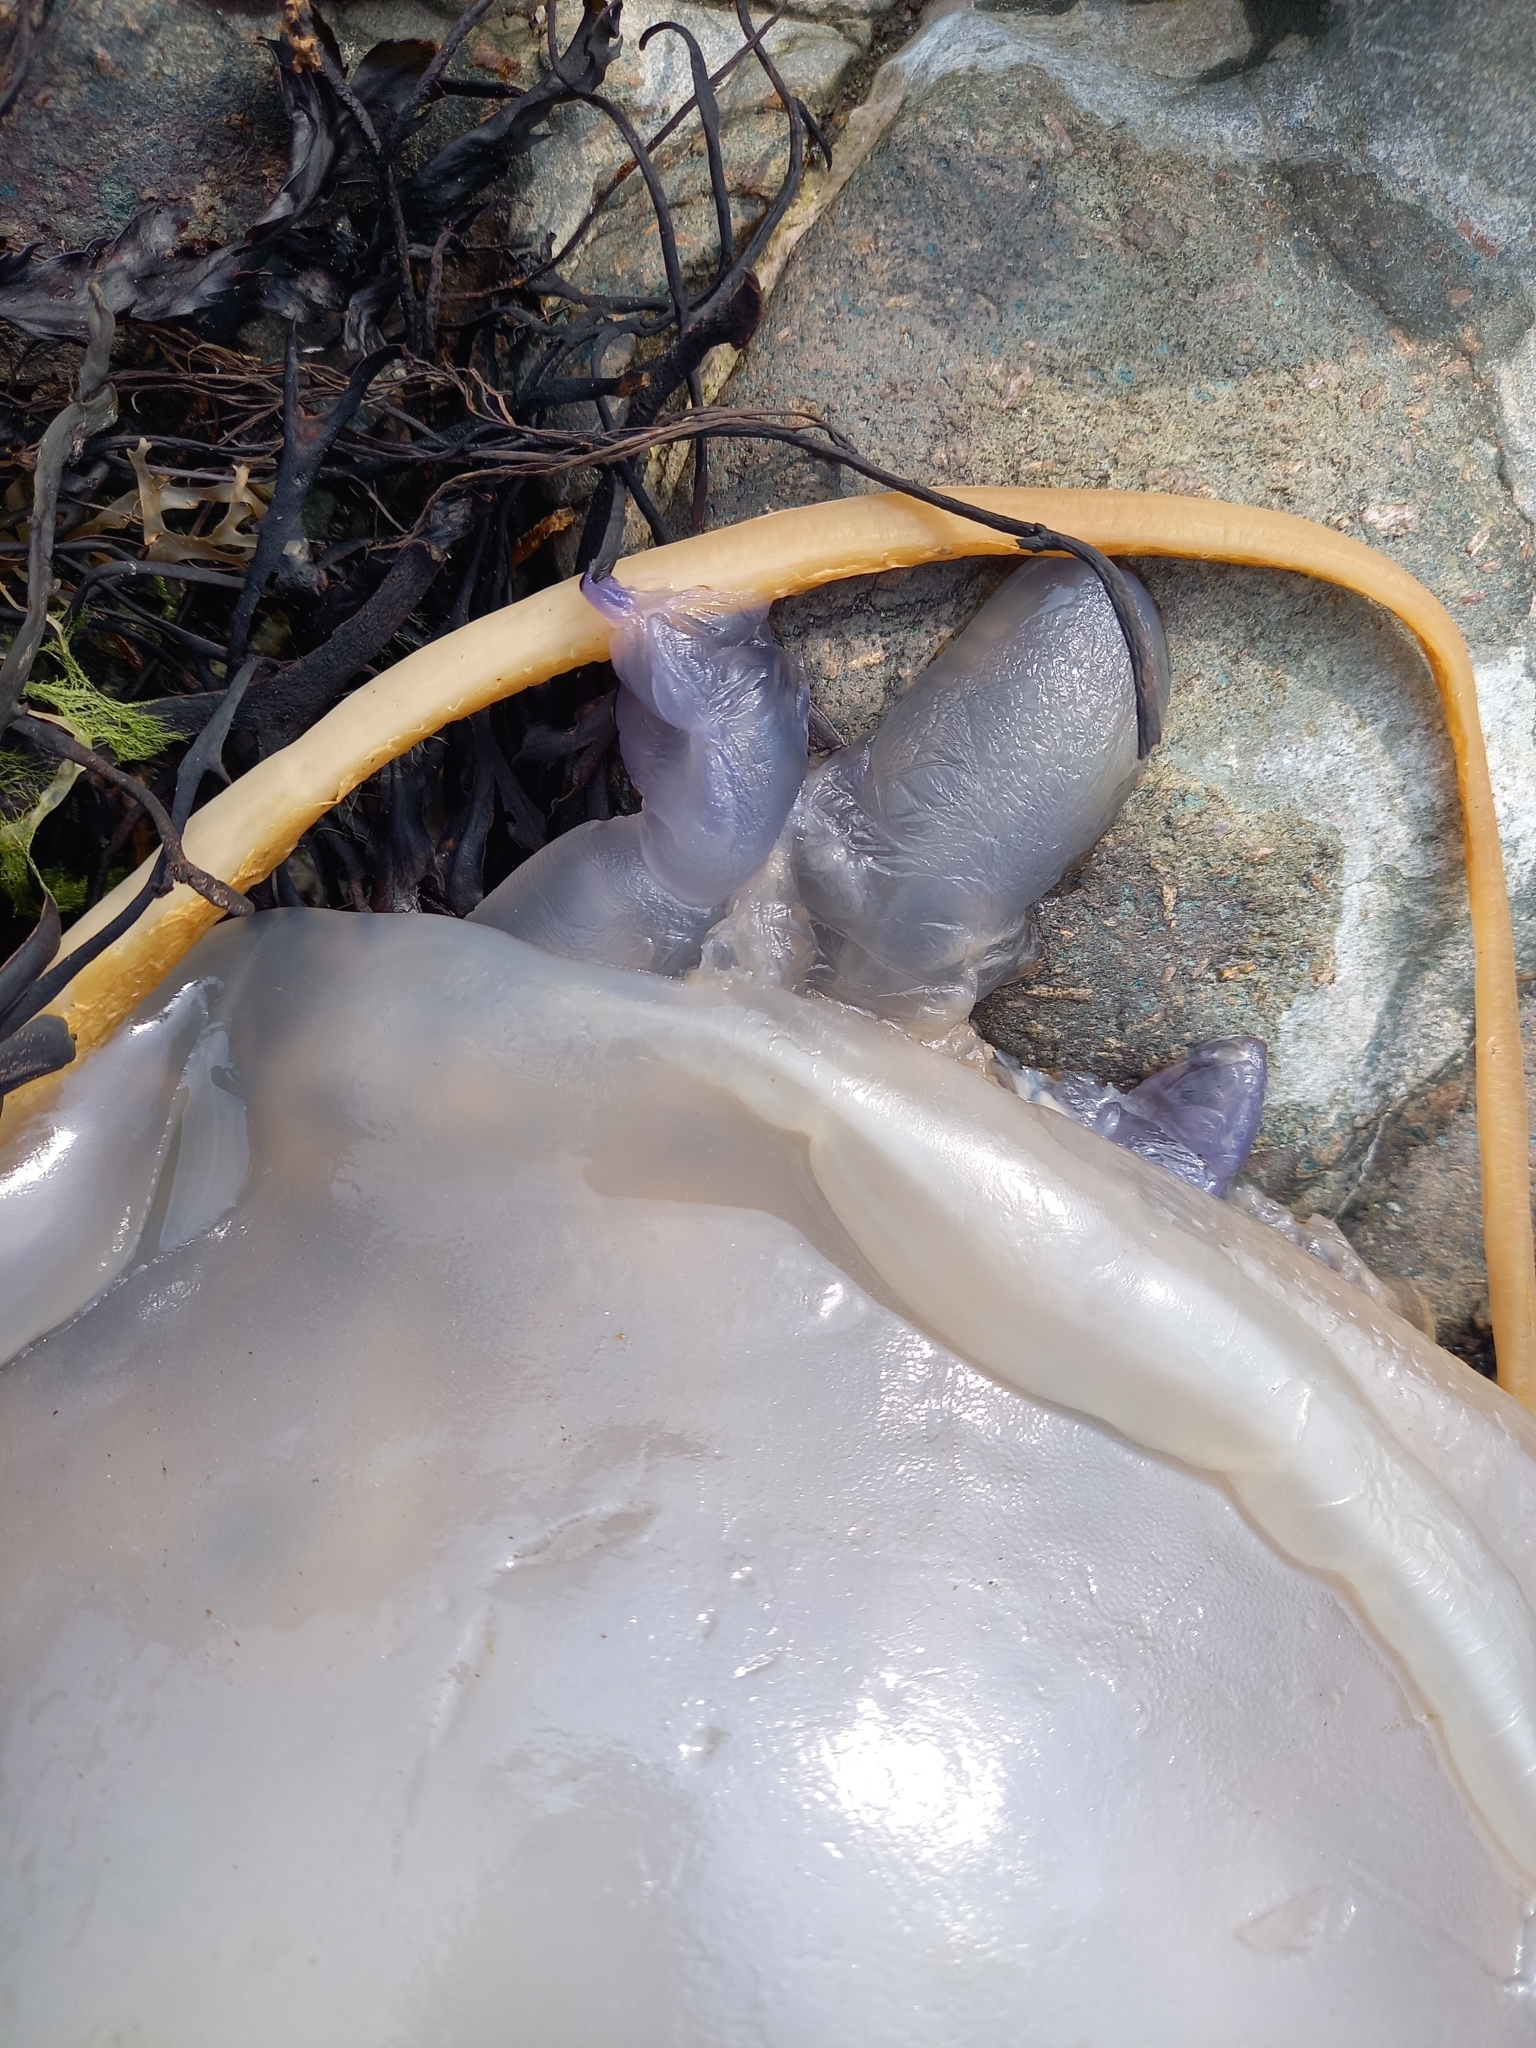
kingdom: Animalia
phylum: Cnidaria
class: Scyphozoa
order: Rhizostomeae
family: Rhizostomatidae
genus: Rhizostoma
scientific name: Rhizostoma octopus
